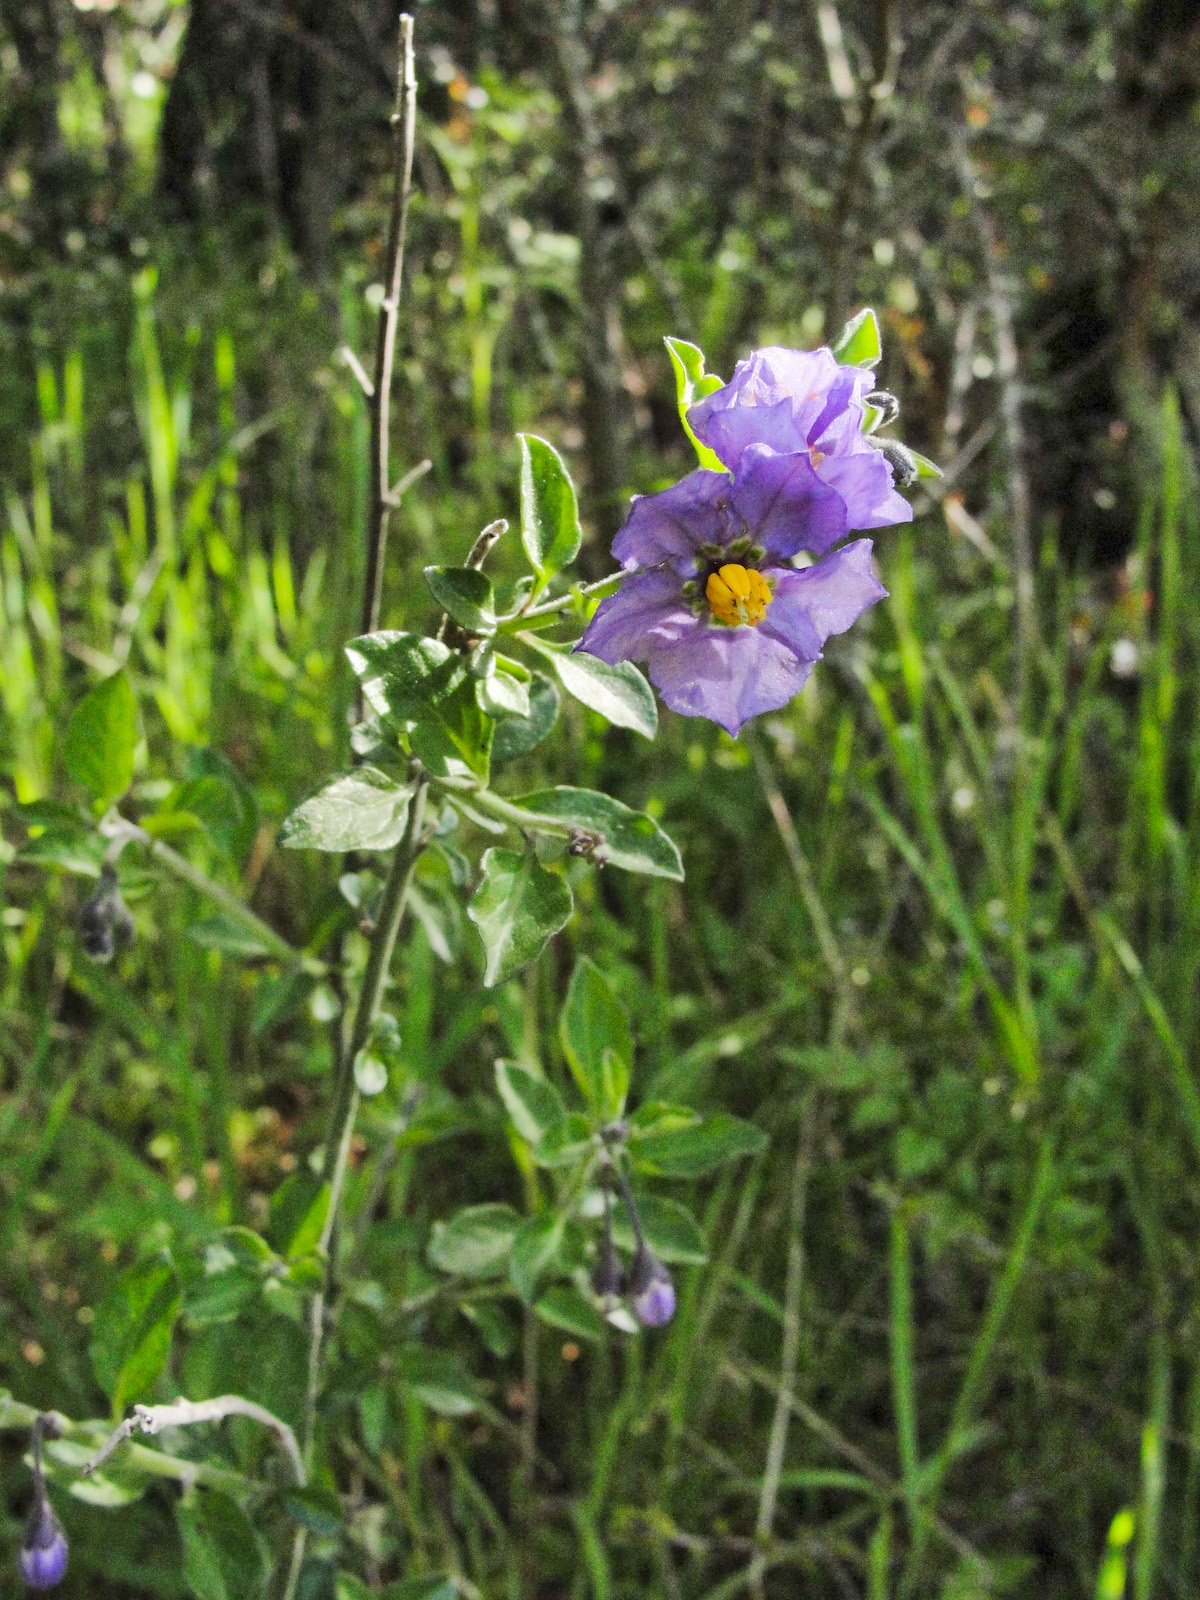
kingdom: Plantae
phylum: Tracheophyta
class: Magnoliopsida
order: Solanales
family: Solanaceae
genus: Solanum
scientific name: Solanum umbelliferum
